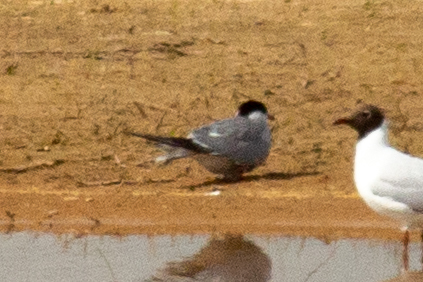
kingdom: Animalia
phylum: Chordata
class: Aves
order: Charadriiformes
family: Laridae
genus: Sterna
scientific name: Sterna hirundo
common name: Common tern
